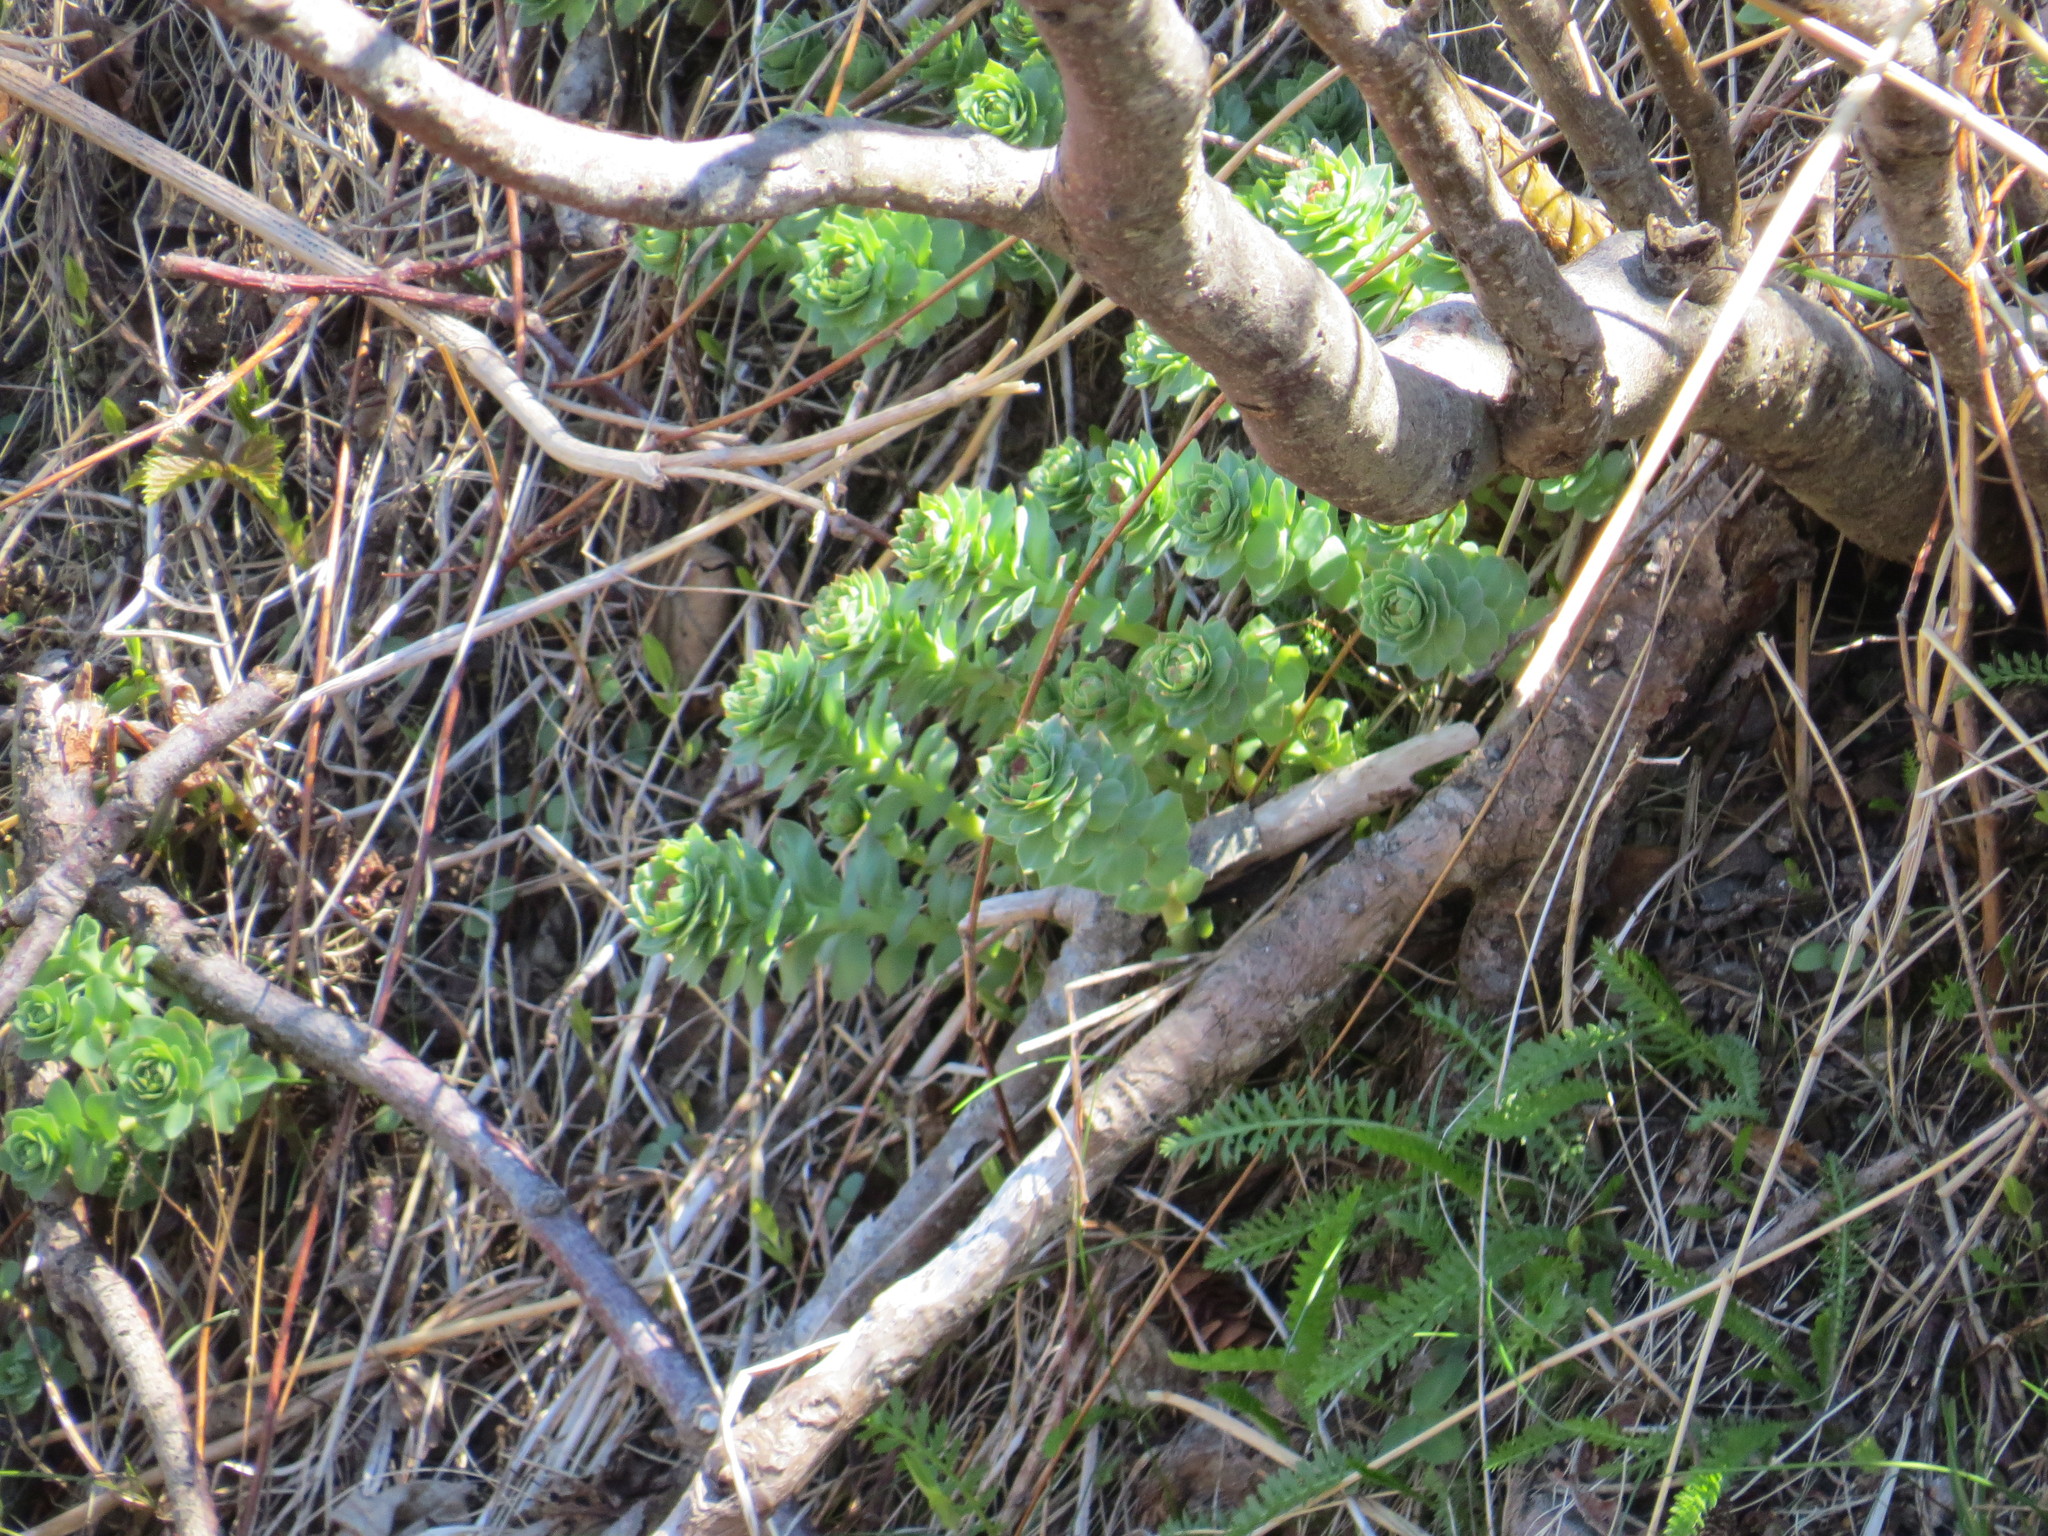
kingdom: Plantae
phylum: Tracheophyta
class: Magnoliopsida
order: Saxifragales
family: Crassulaceae
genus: Rhodiola
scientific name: Rhodiola rosea
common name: Roseroot
